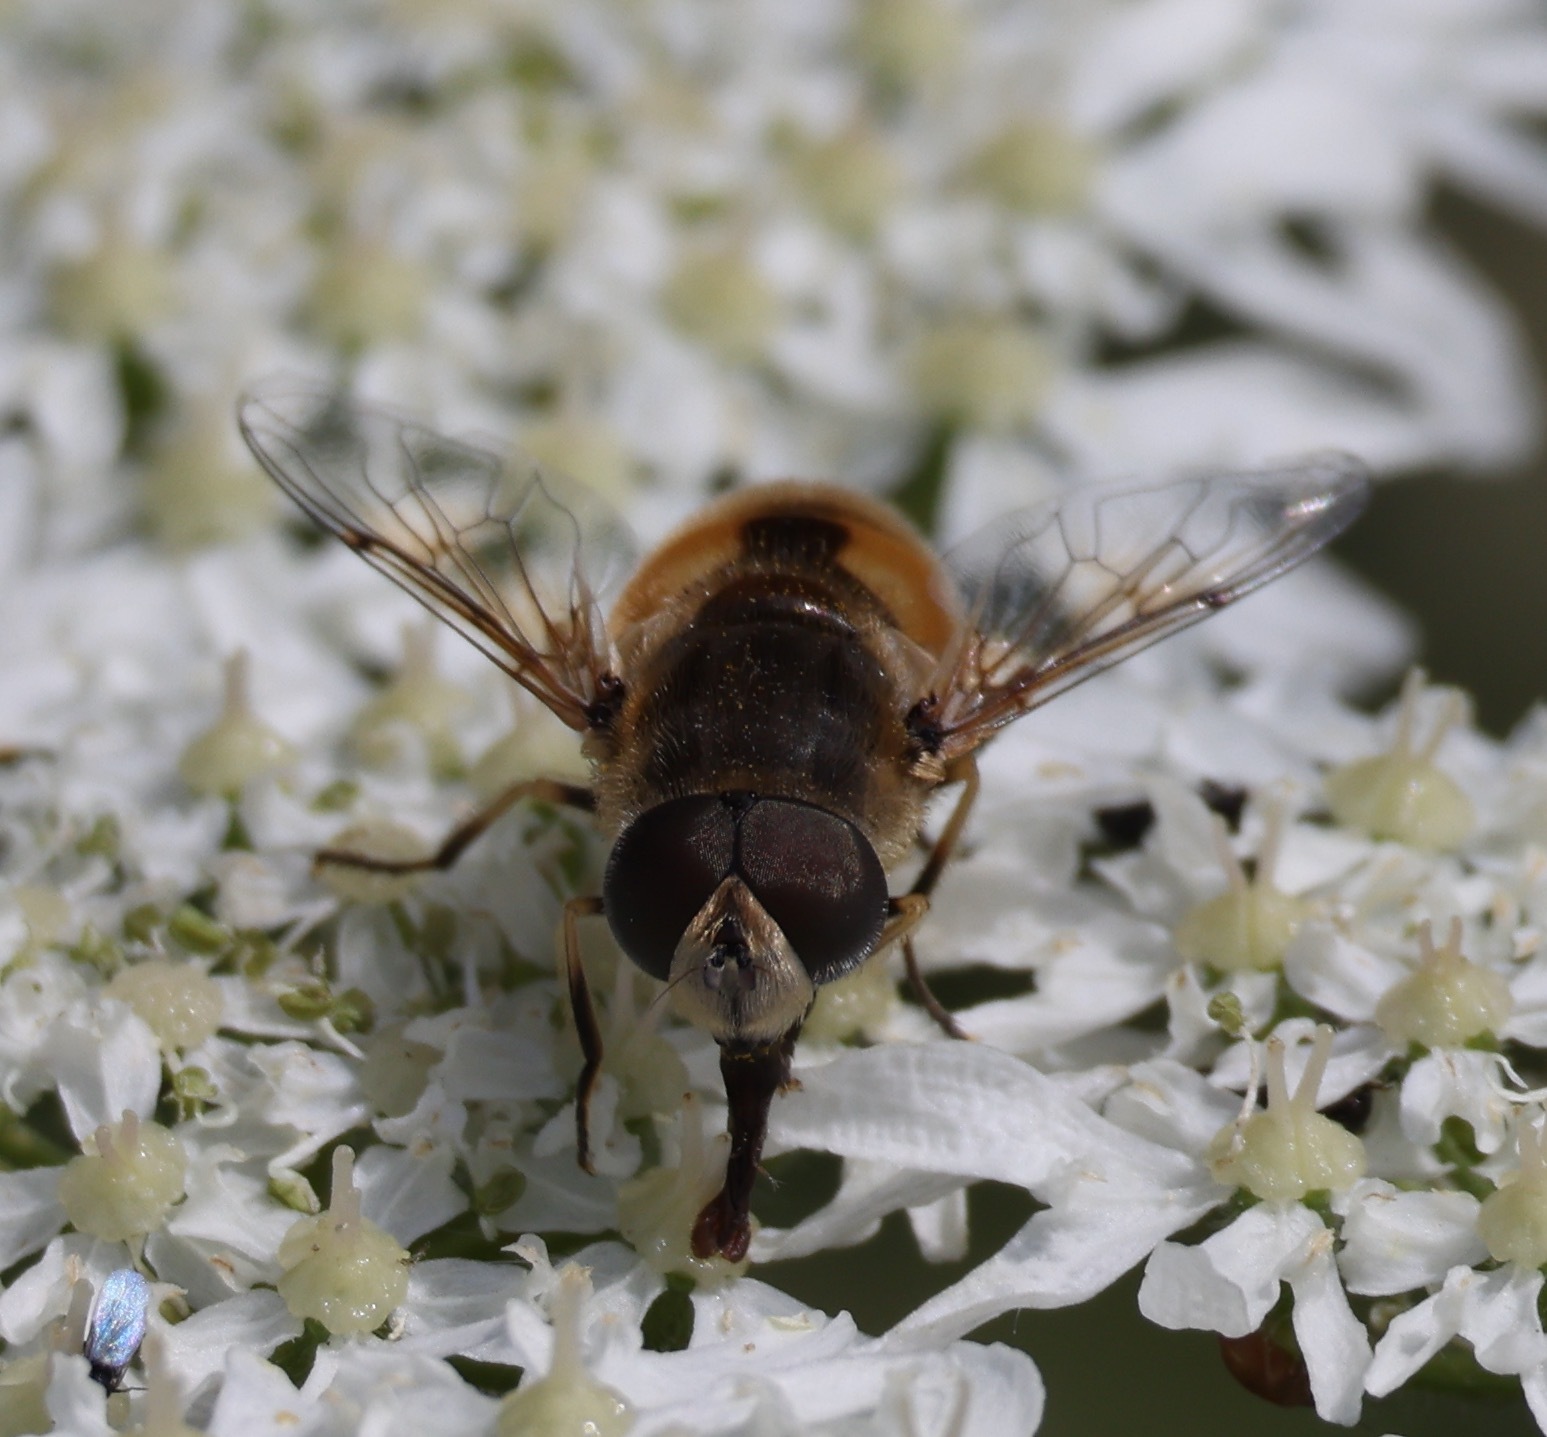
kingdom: Animalia
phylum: Arthropoda
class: Insecta
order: Diptera
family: Syrphidae
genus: Eristalis
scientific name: Eristalis arbustorum
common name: Hover fly
